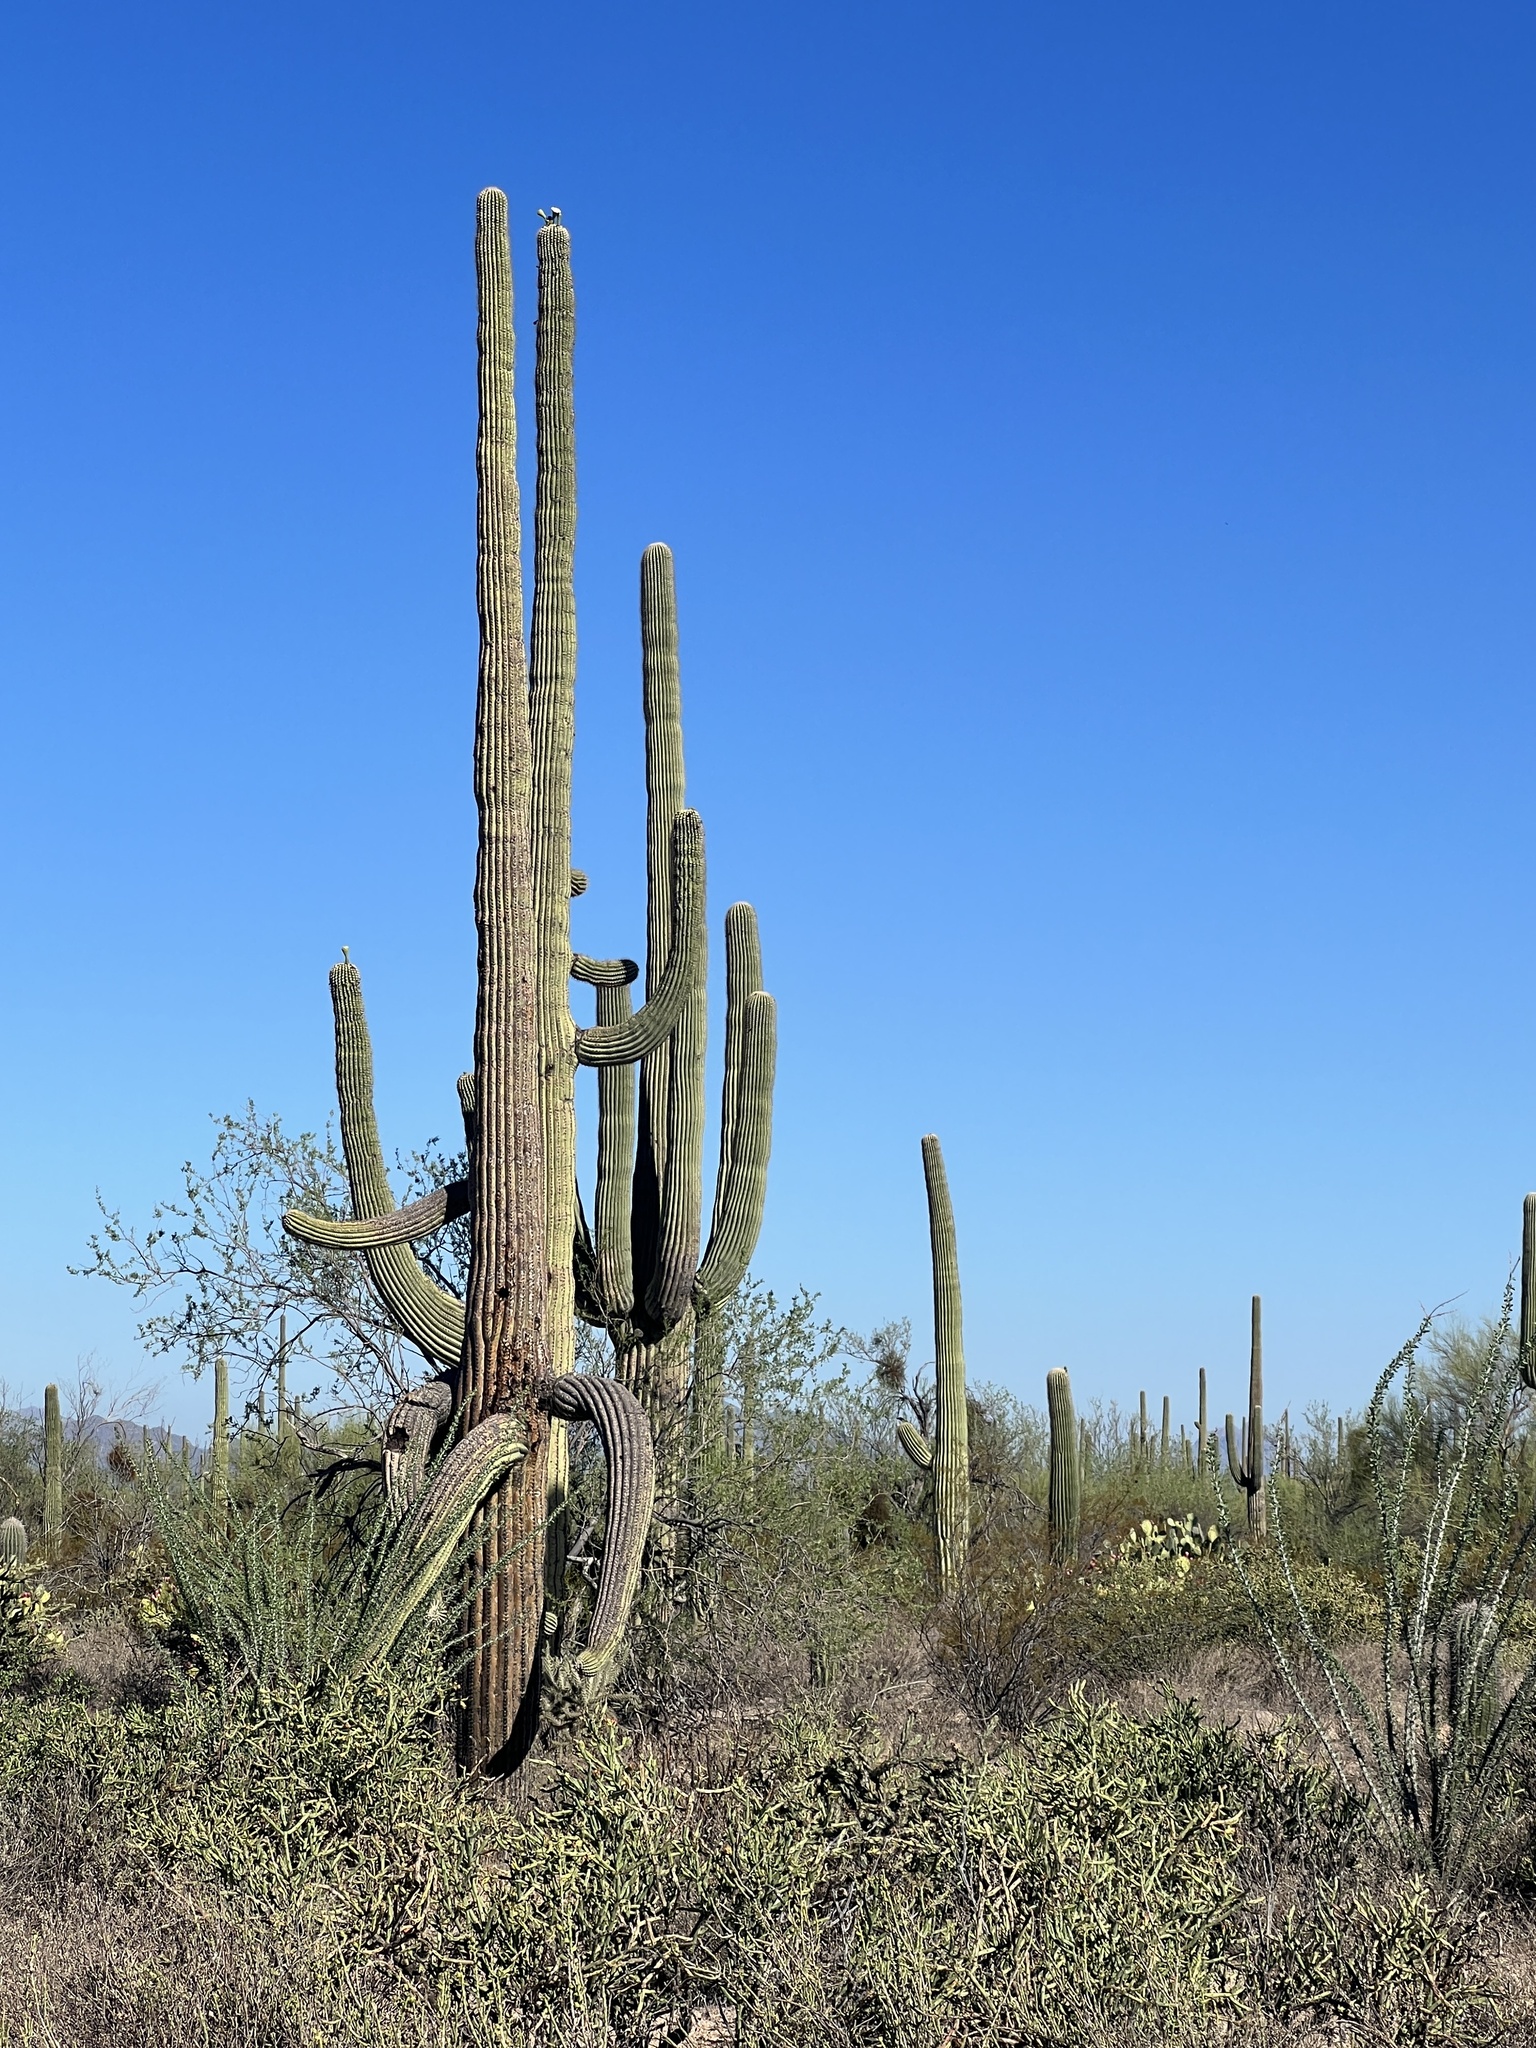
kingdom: Plantae
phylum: Tracheophyta
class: Magnoliopsida
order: Caryophyllales
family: Cactaceae
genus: Carnegiea
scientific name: Carnegiea gigantea
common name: Saguaro
